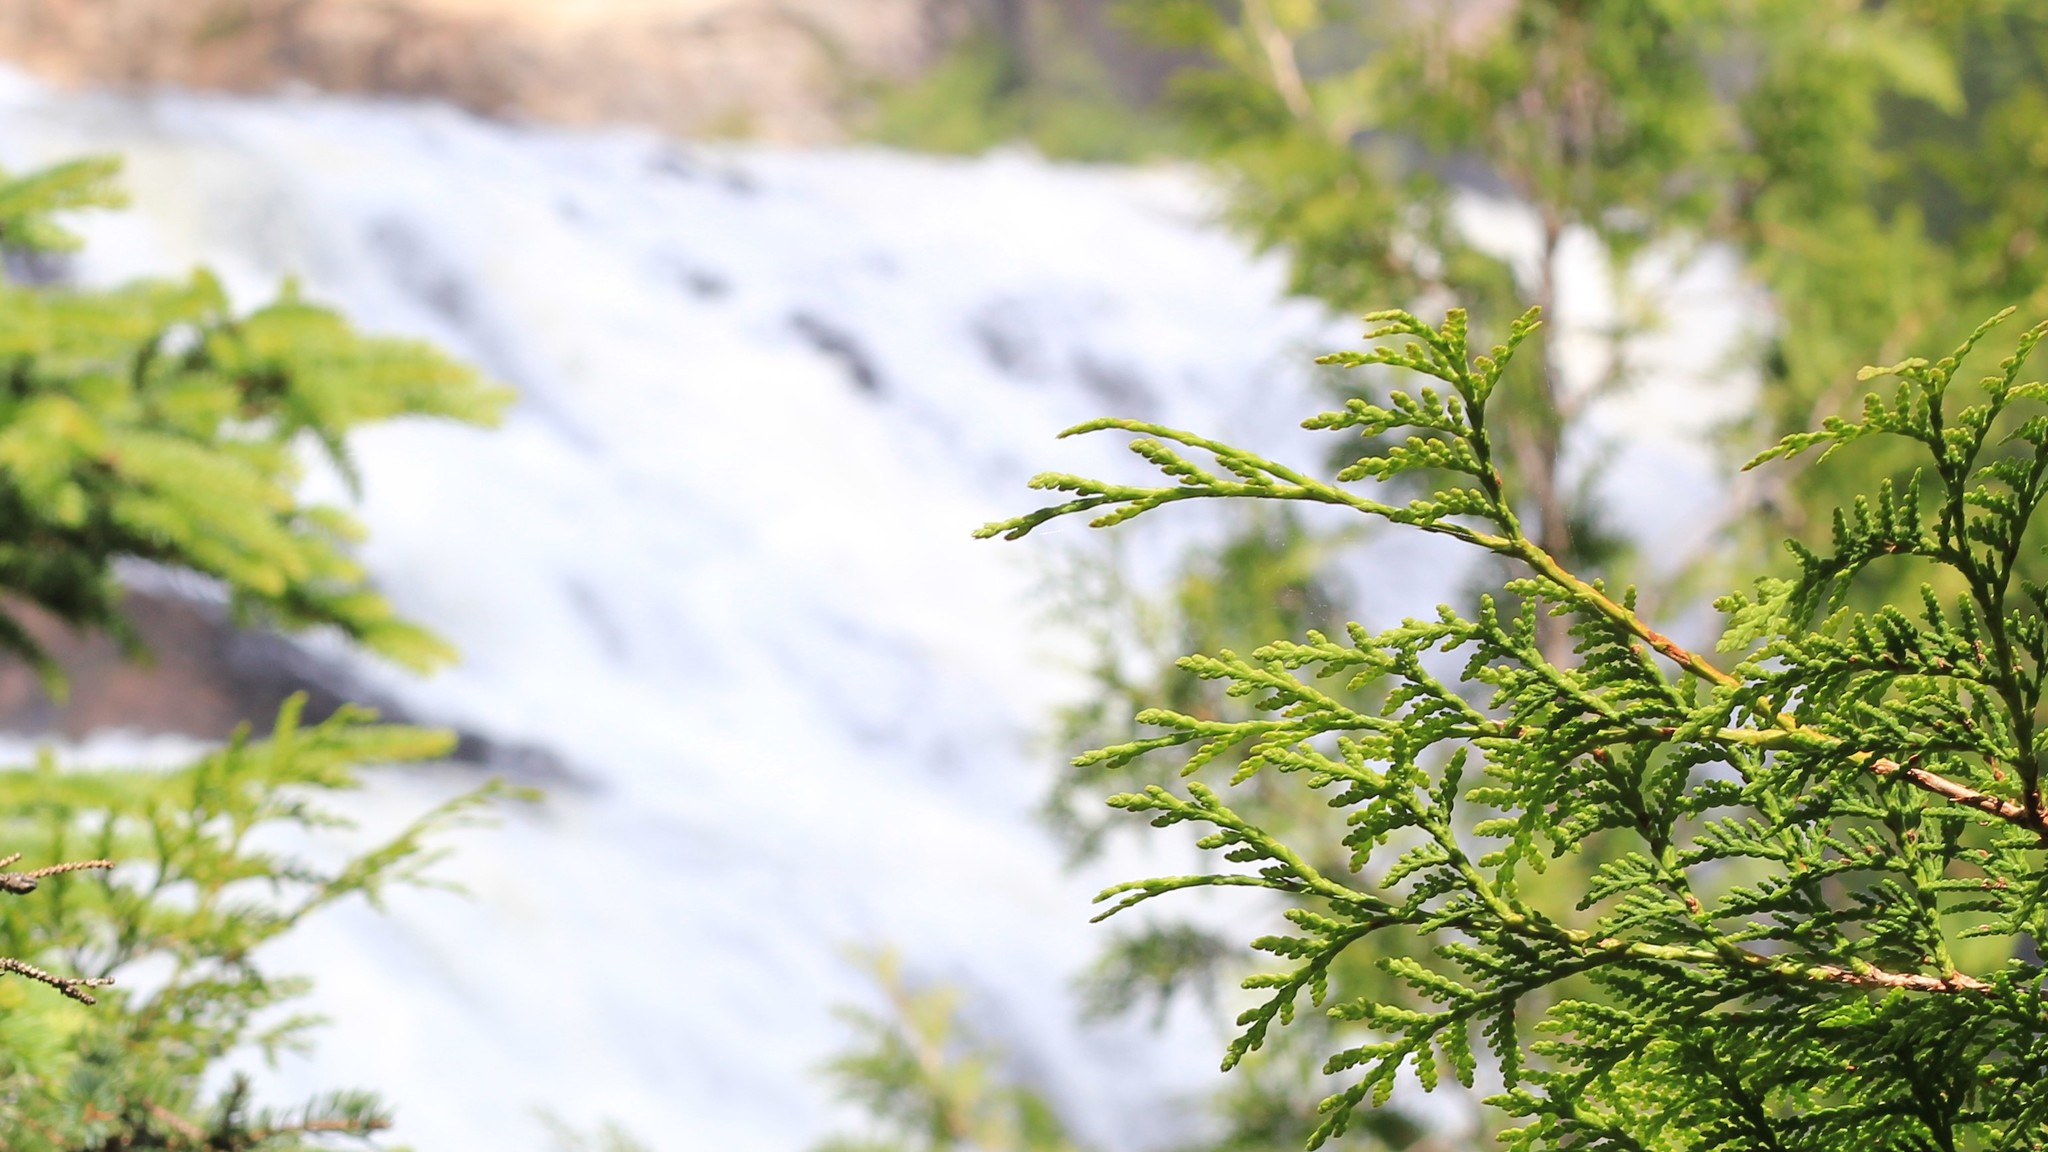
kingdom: Plantae
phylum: Tracheophyta
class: Pinopsida
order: Pinales
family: Cupressaceae
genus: Thuja
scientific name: Thuja occidentalis
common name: Northern white-cedar
